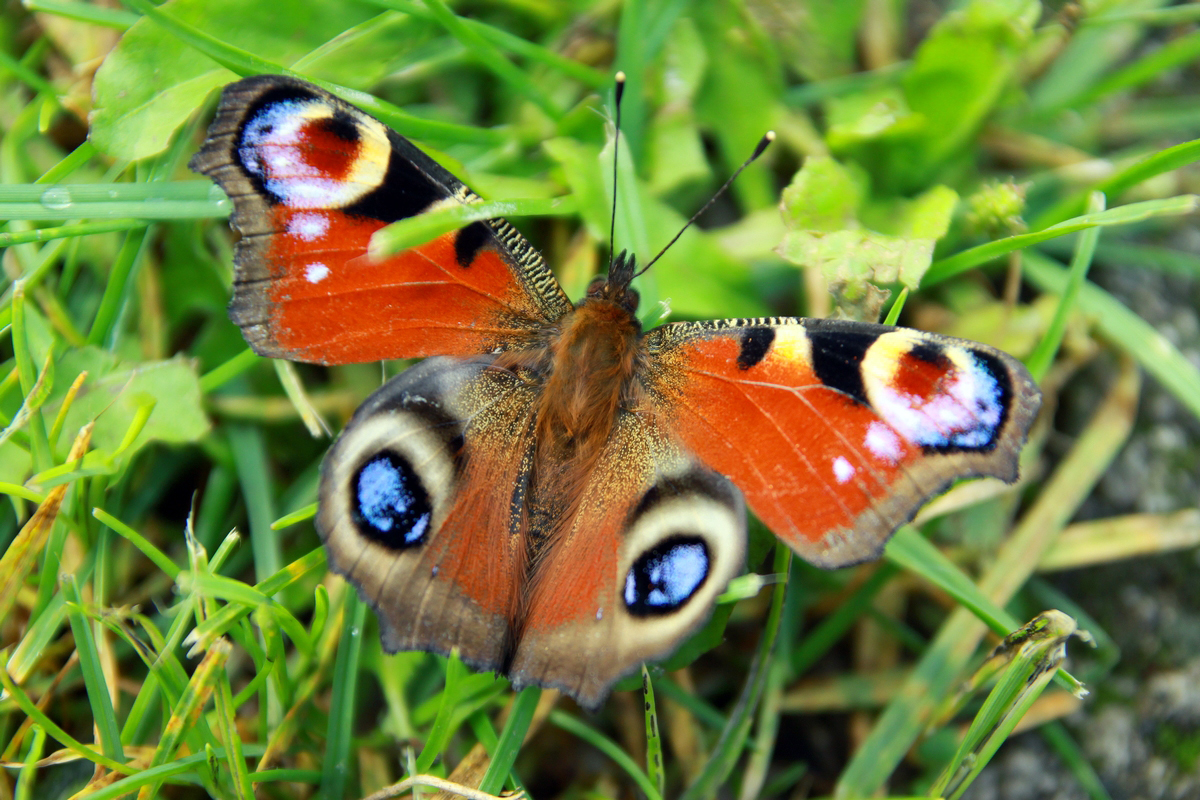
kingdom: Animalia
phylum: Arthropoda
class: Insecta
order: Lepidoptera
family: Nymphalidae
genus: Aglais
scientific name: Aglais io
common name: Peacock
